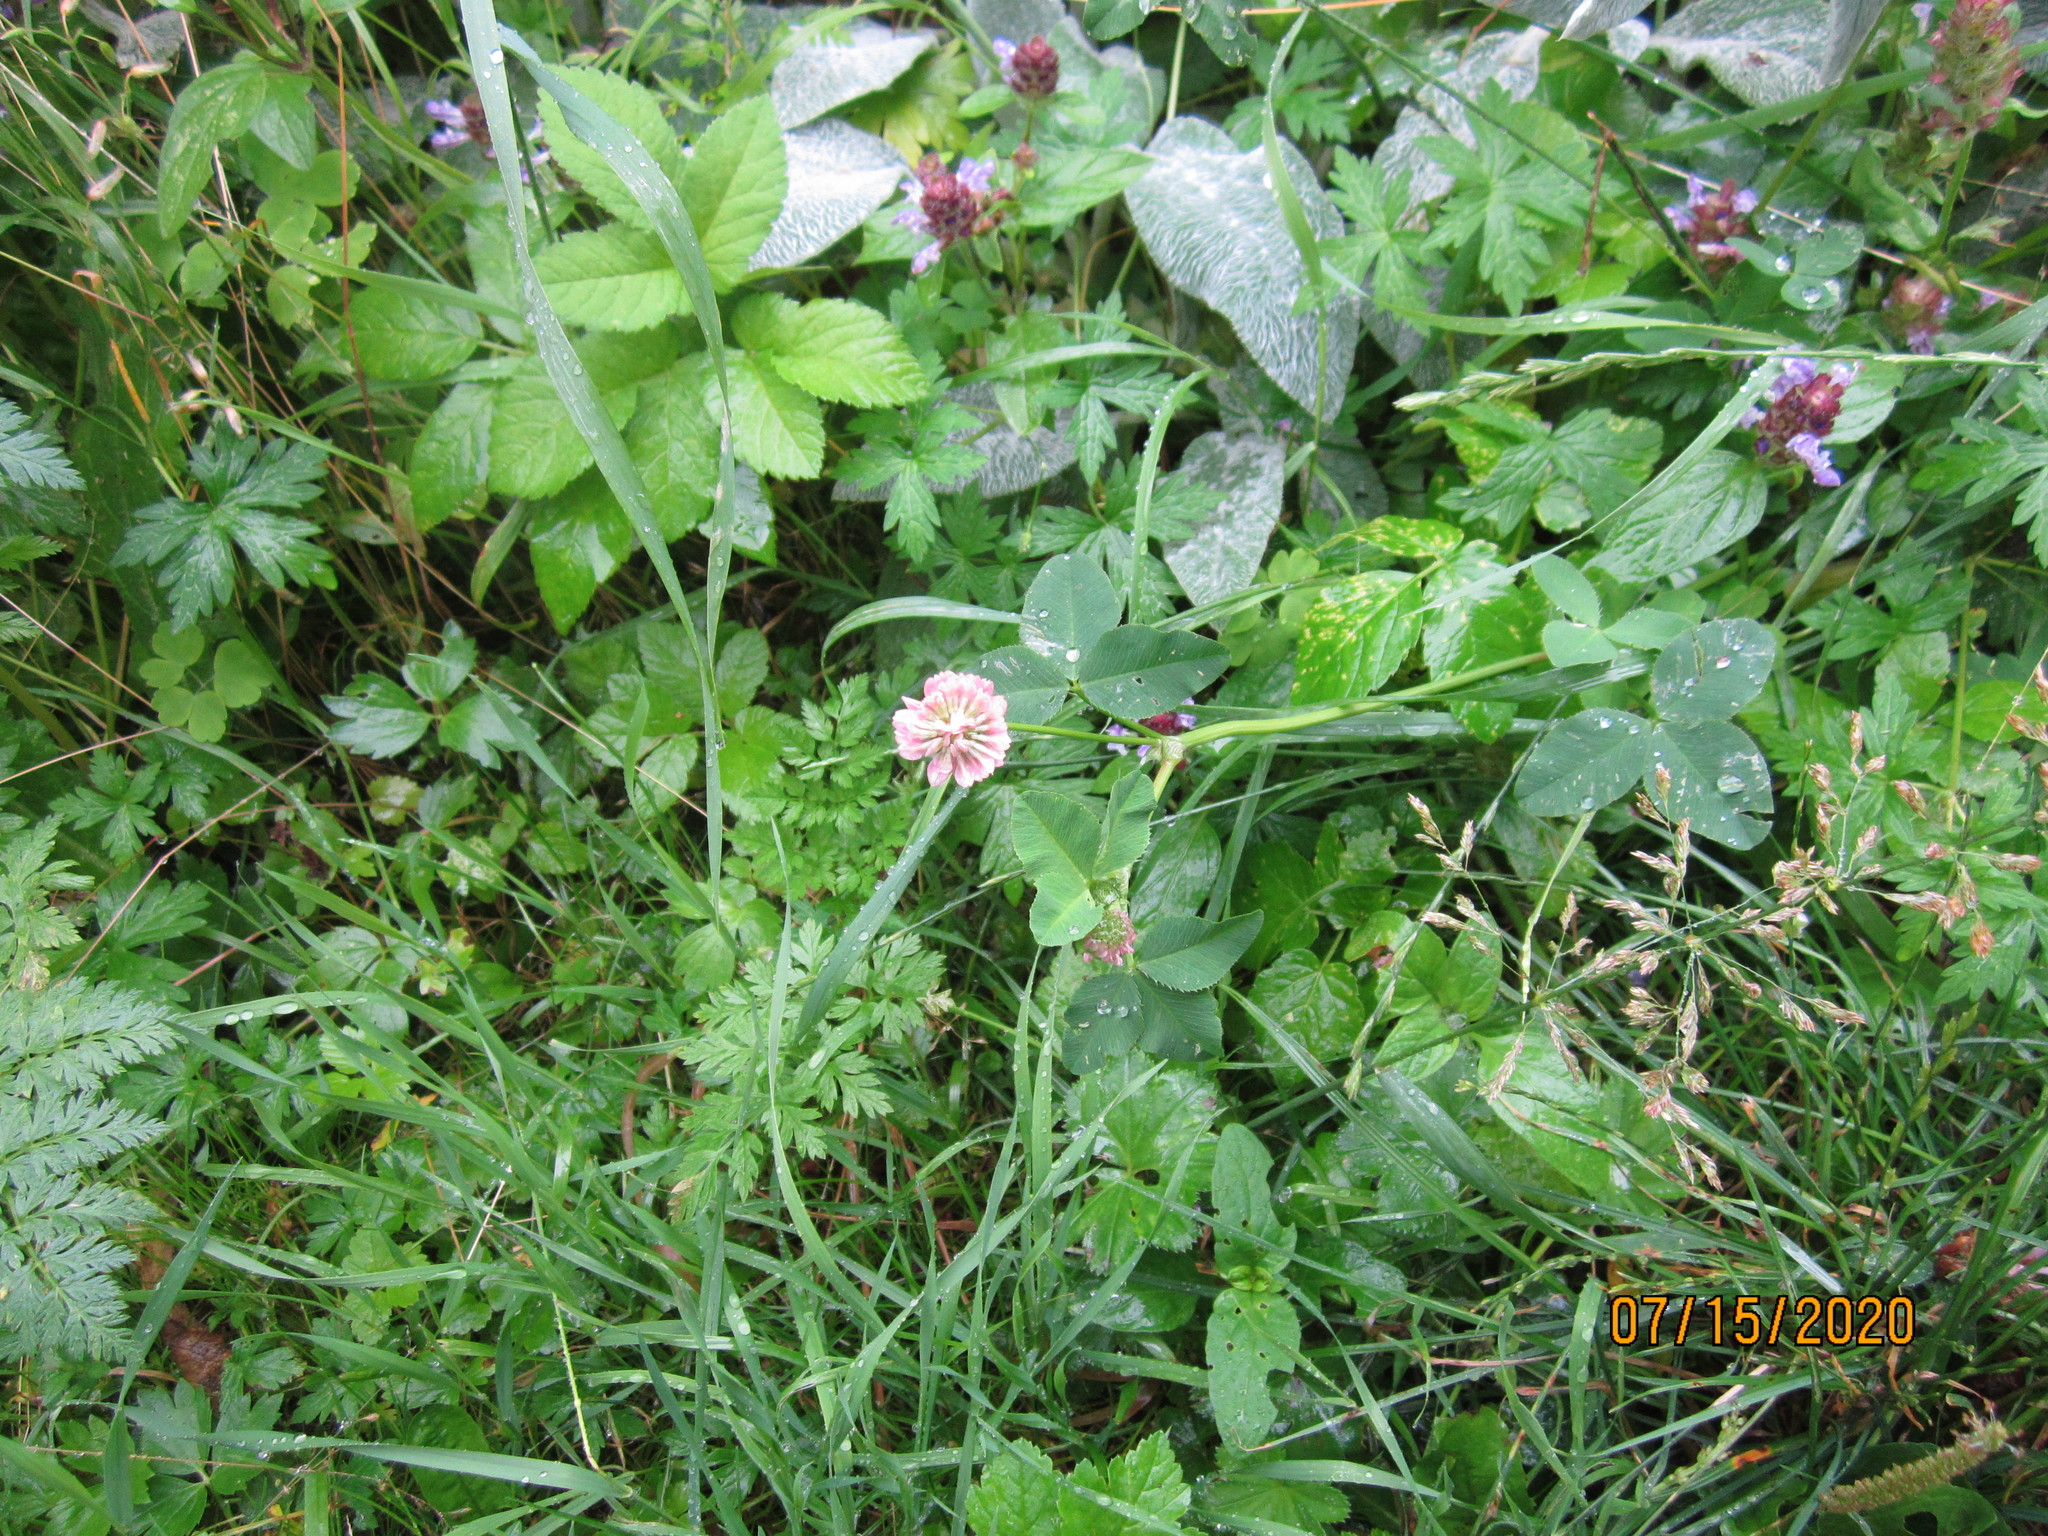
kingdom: Plantae
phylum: Tracheophyta
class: Magnoliopsida
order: Fabales
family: Fabaceae
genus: Trifolium
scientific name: Trifolium hybridum
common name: Alsike clover
